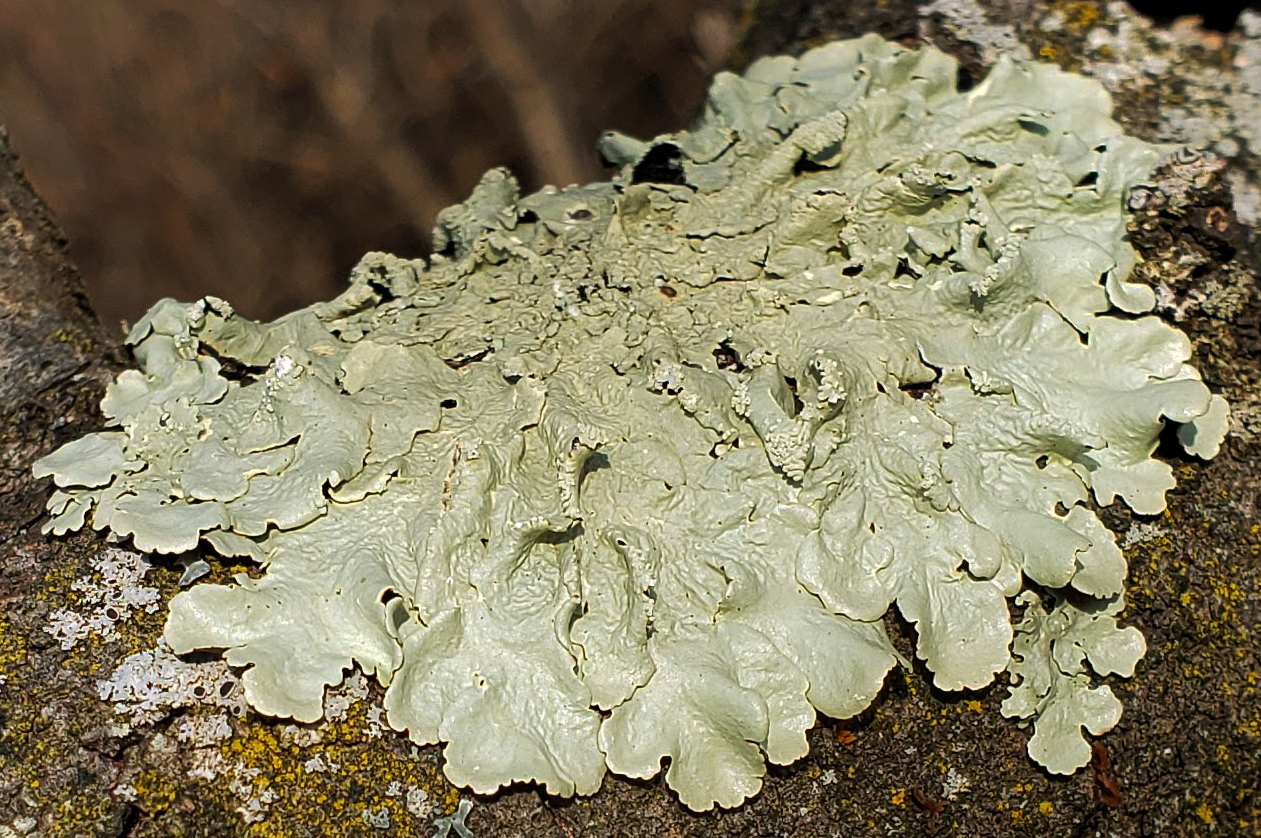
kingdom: Fungi
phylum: Ascomycota
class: Lecanoromycetes
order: Lecanorales
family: Parmeliaceae
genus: Flavoparmelia
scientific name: Flavoparmelia caperata
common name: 40-mile per hour lichen
